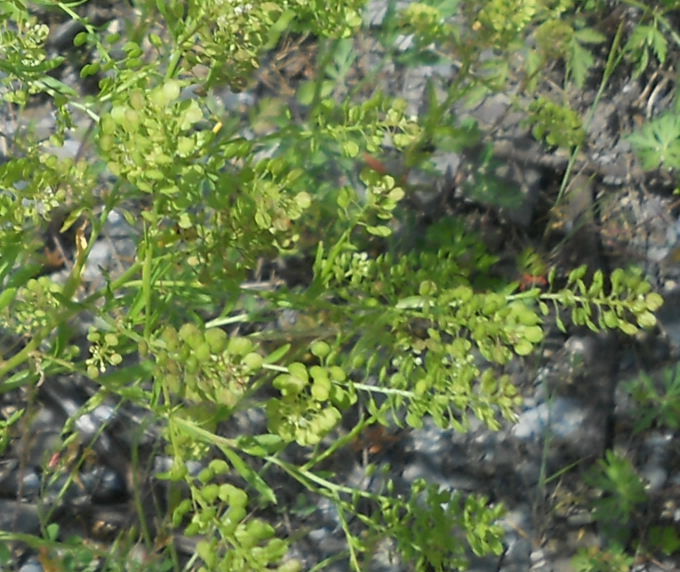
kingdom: Plantae
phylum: Tracheophyta
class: Magnoliopsida
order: Brassicales
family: Brassicaceae
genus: Lepidium
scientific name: Lepidium virginicum
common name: Least pepperwort
